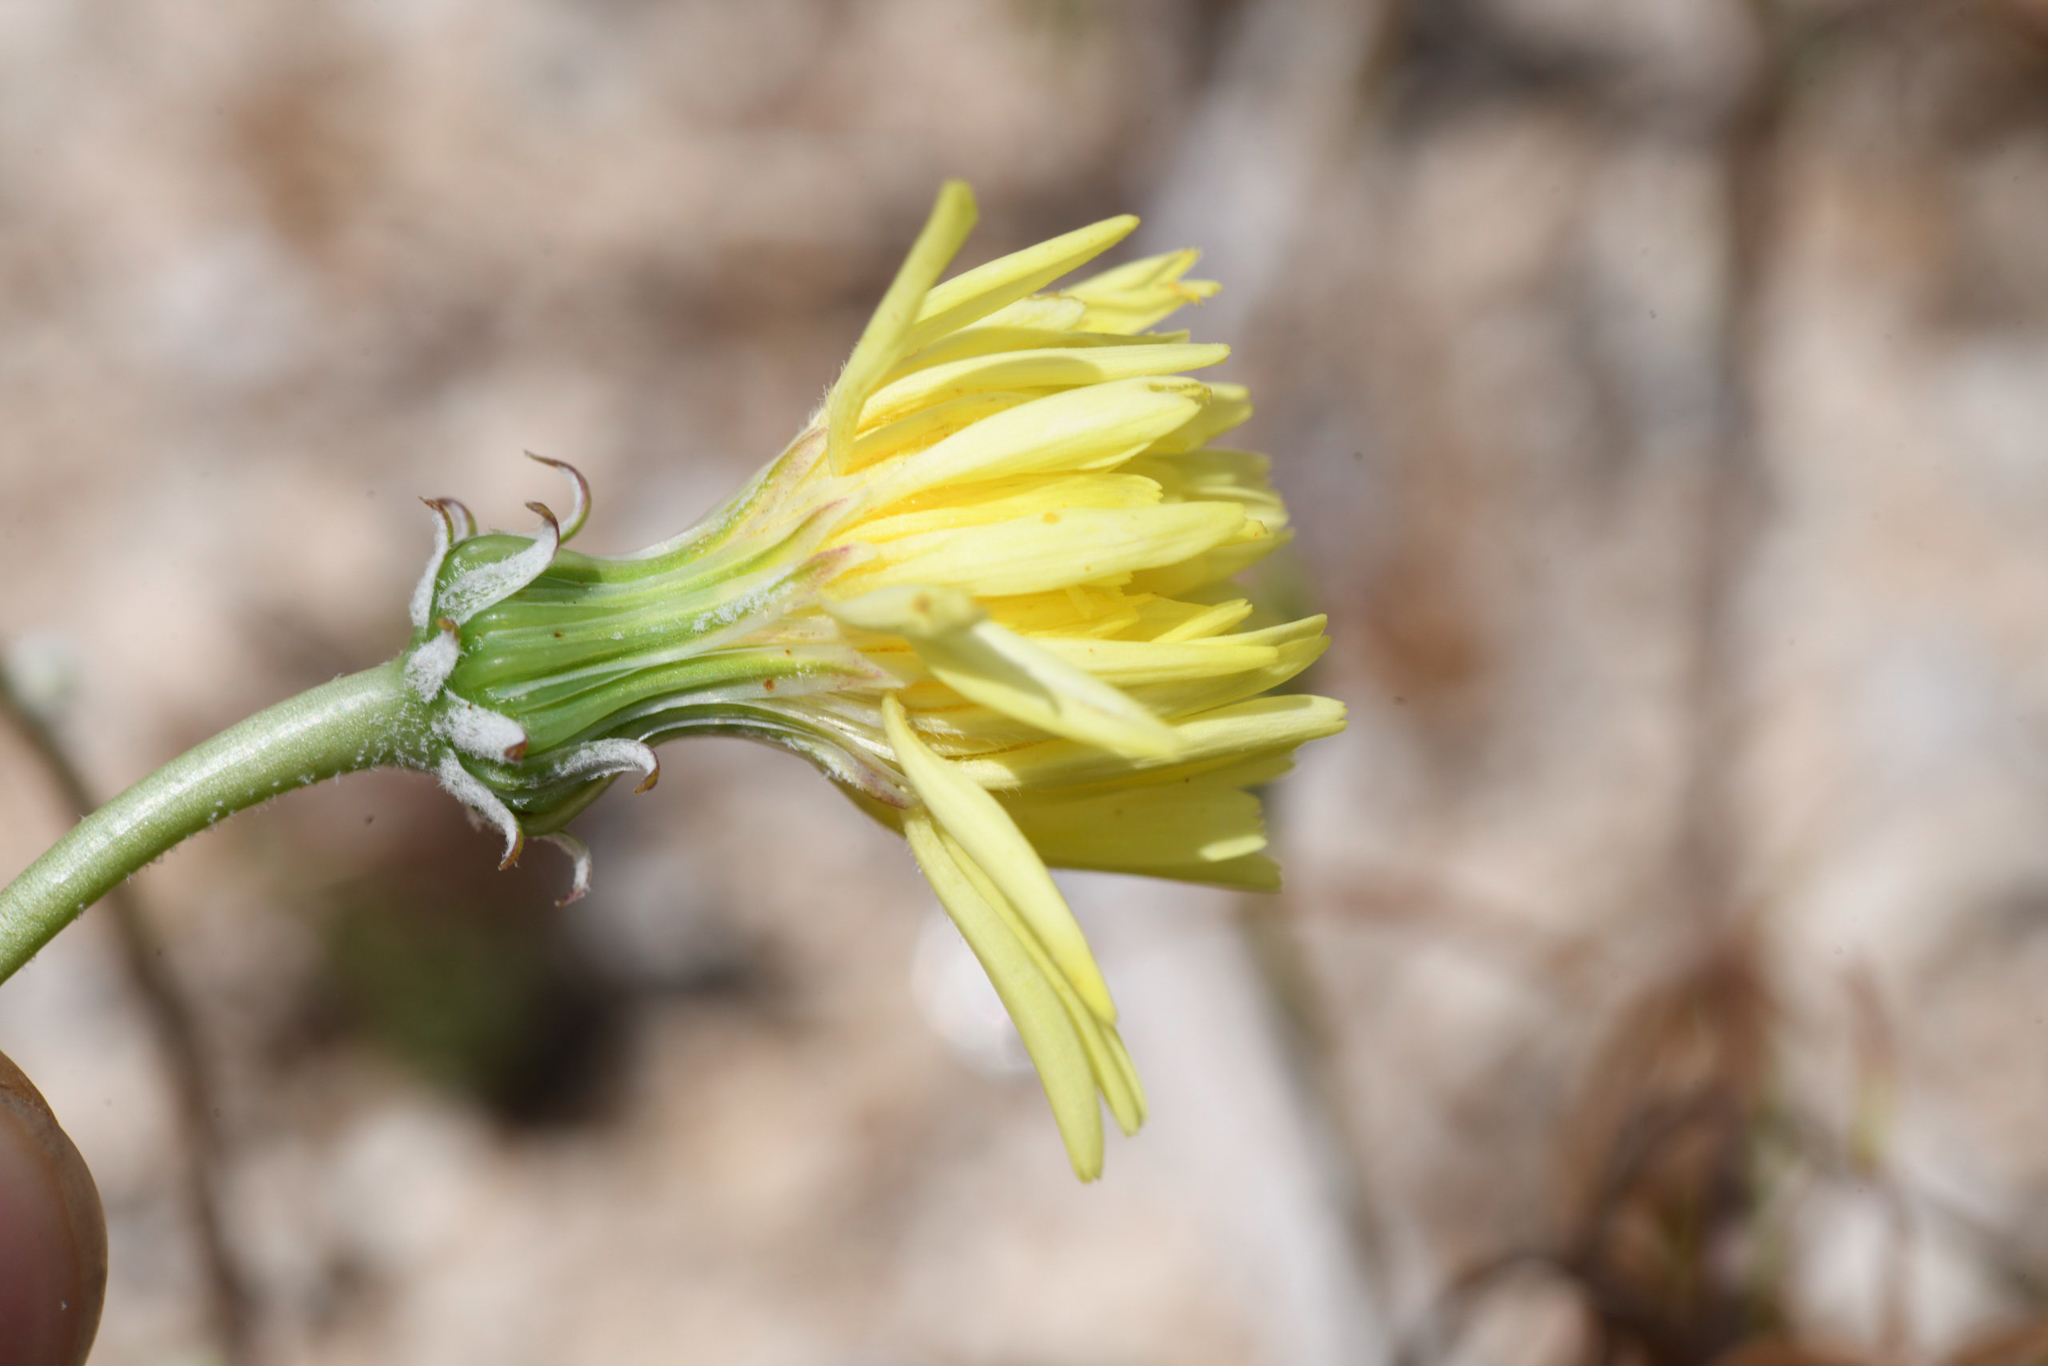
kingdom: Plantae
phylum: Tracheophyta
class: Magnoliopsida
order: Asterales
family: Asteraceae
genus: Malacothrix
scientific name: Malacothrix glabrata
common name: Smooth desert-dandelion
